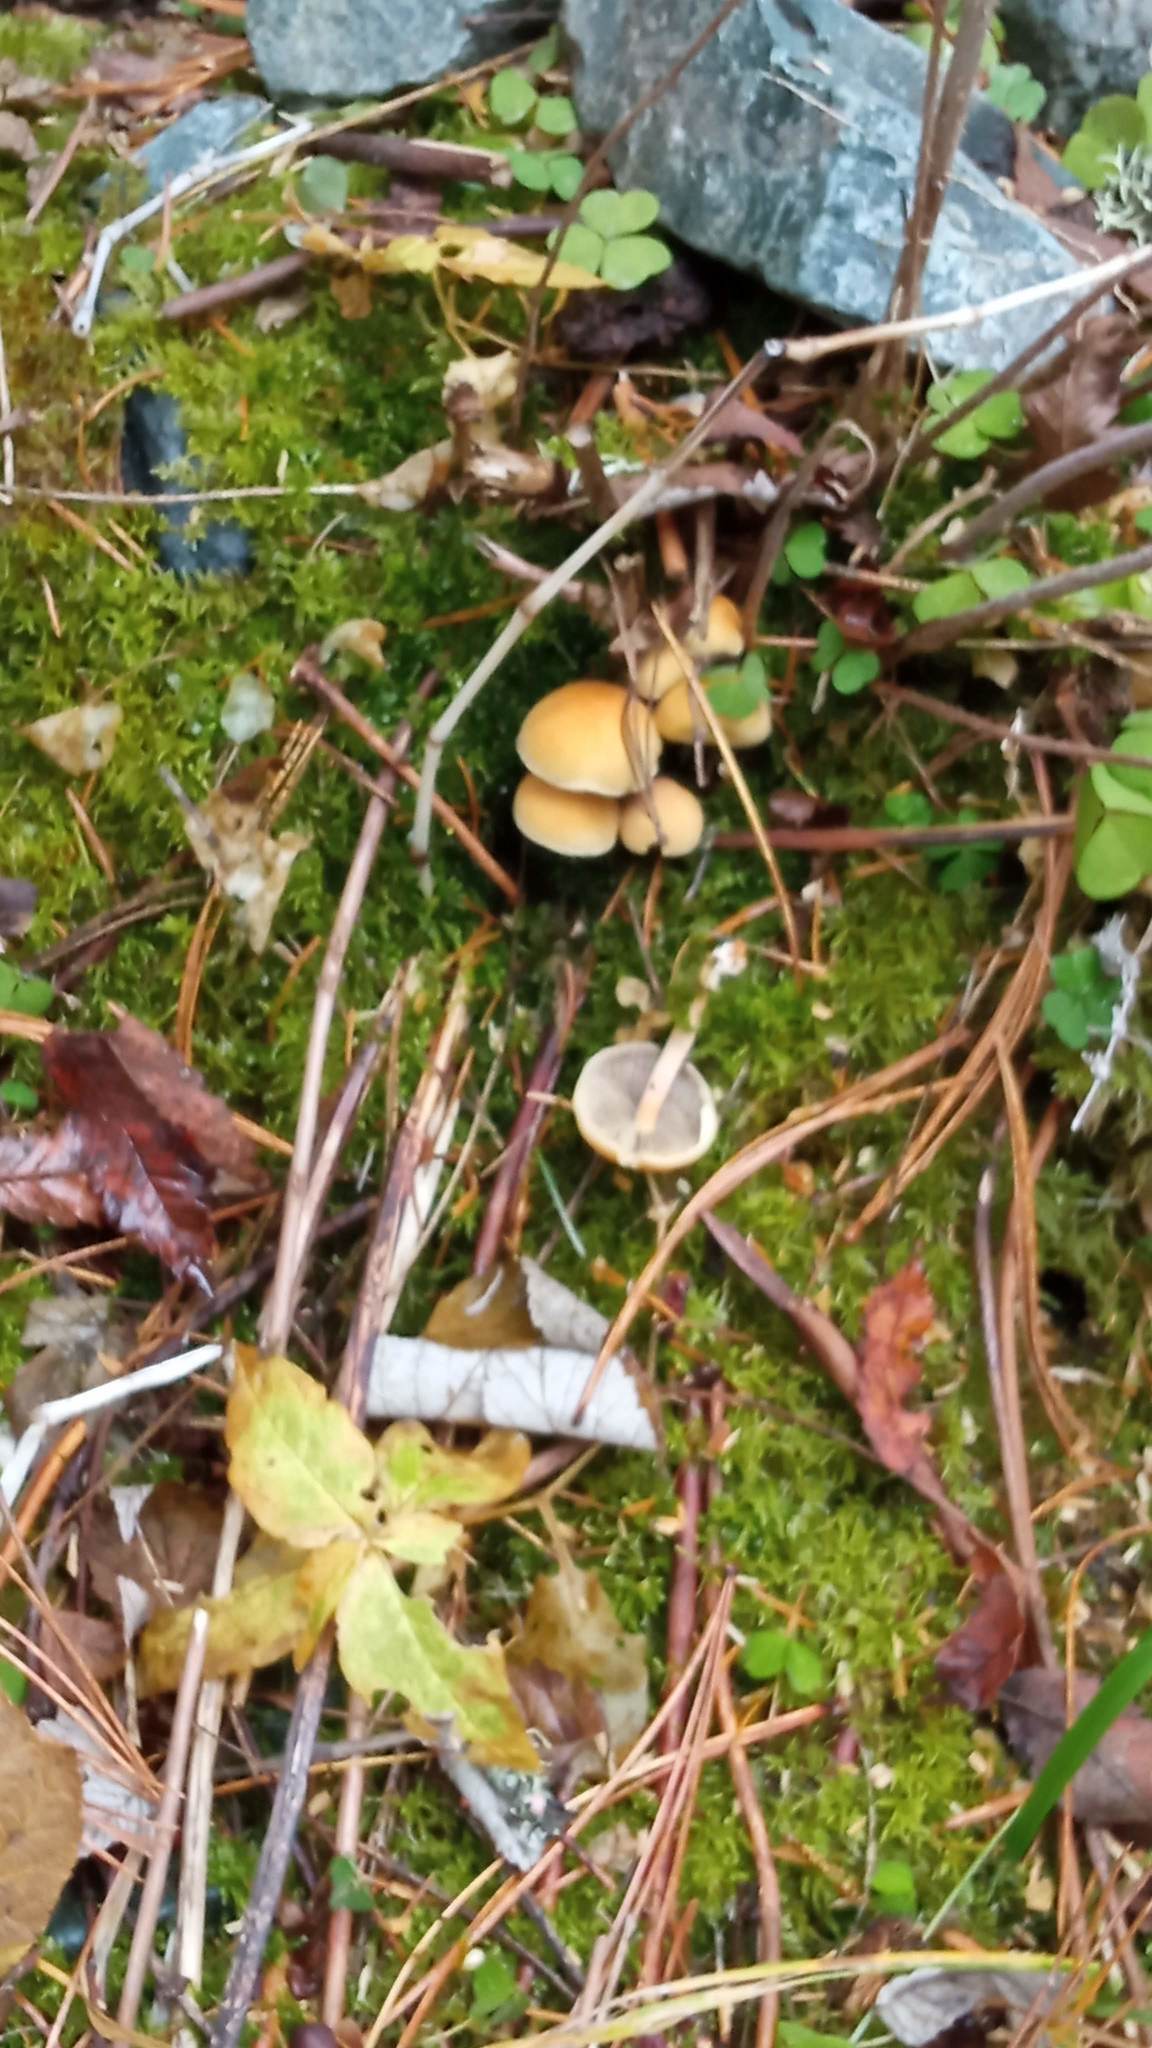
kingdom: Fungi
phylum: Basidiomycota
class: Agaricomycetes
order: Agaricales
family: Strophariaceae
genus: Hypholoma
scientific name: Hypholoma capnoides
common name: Conifer tuft
